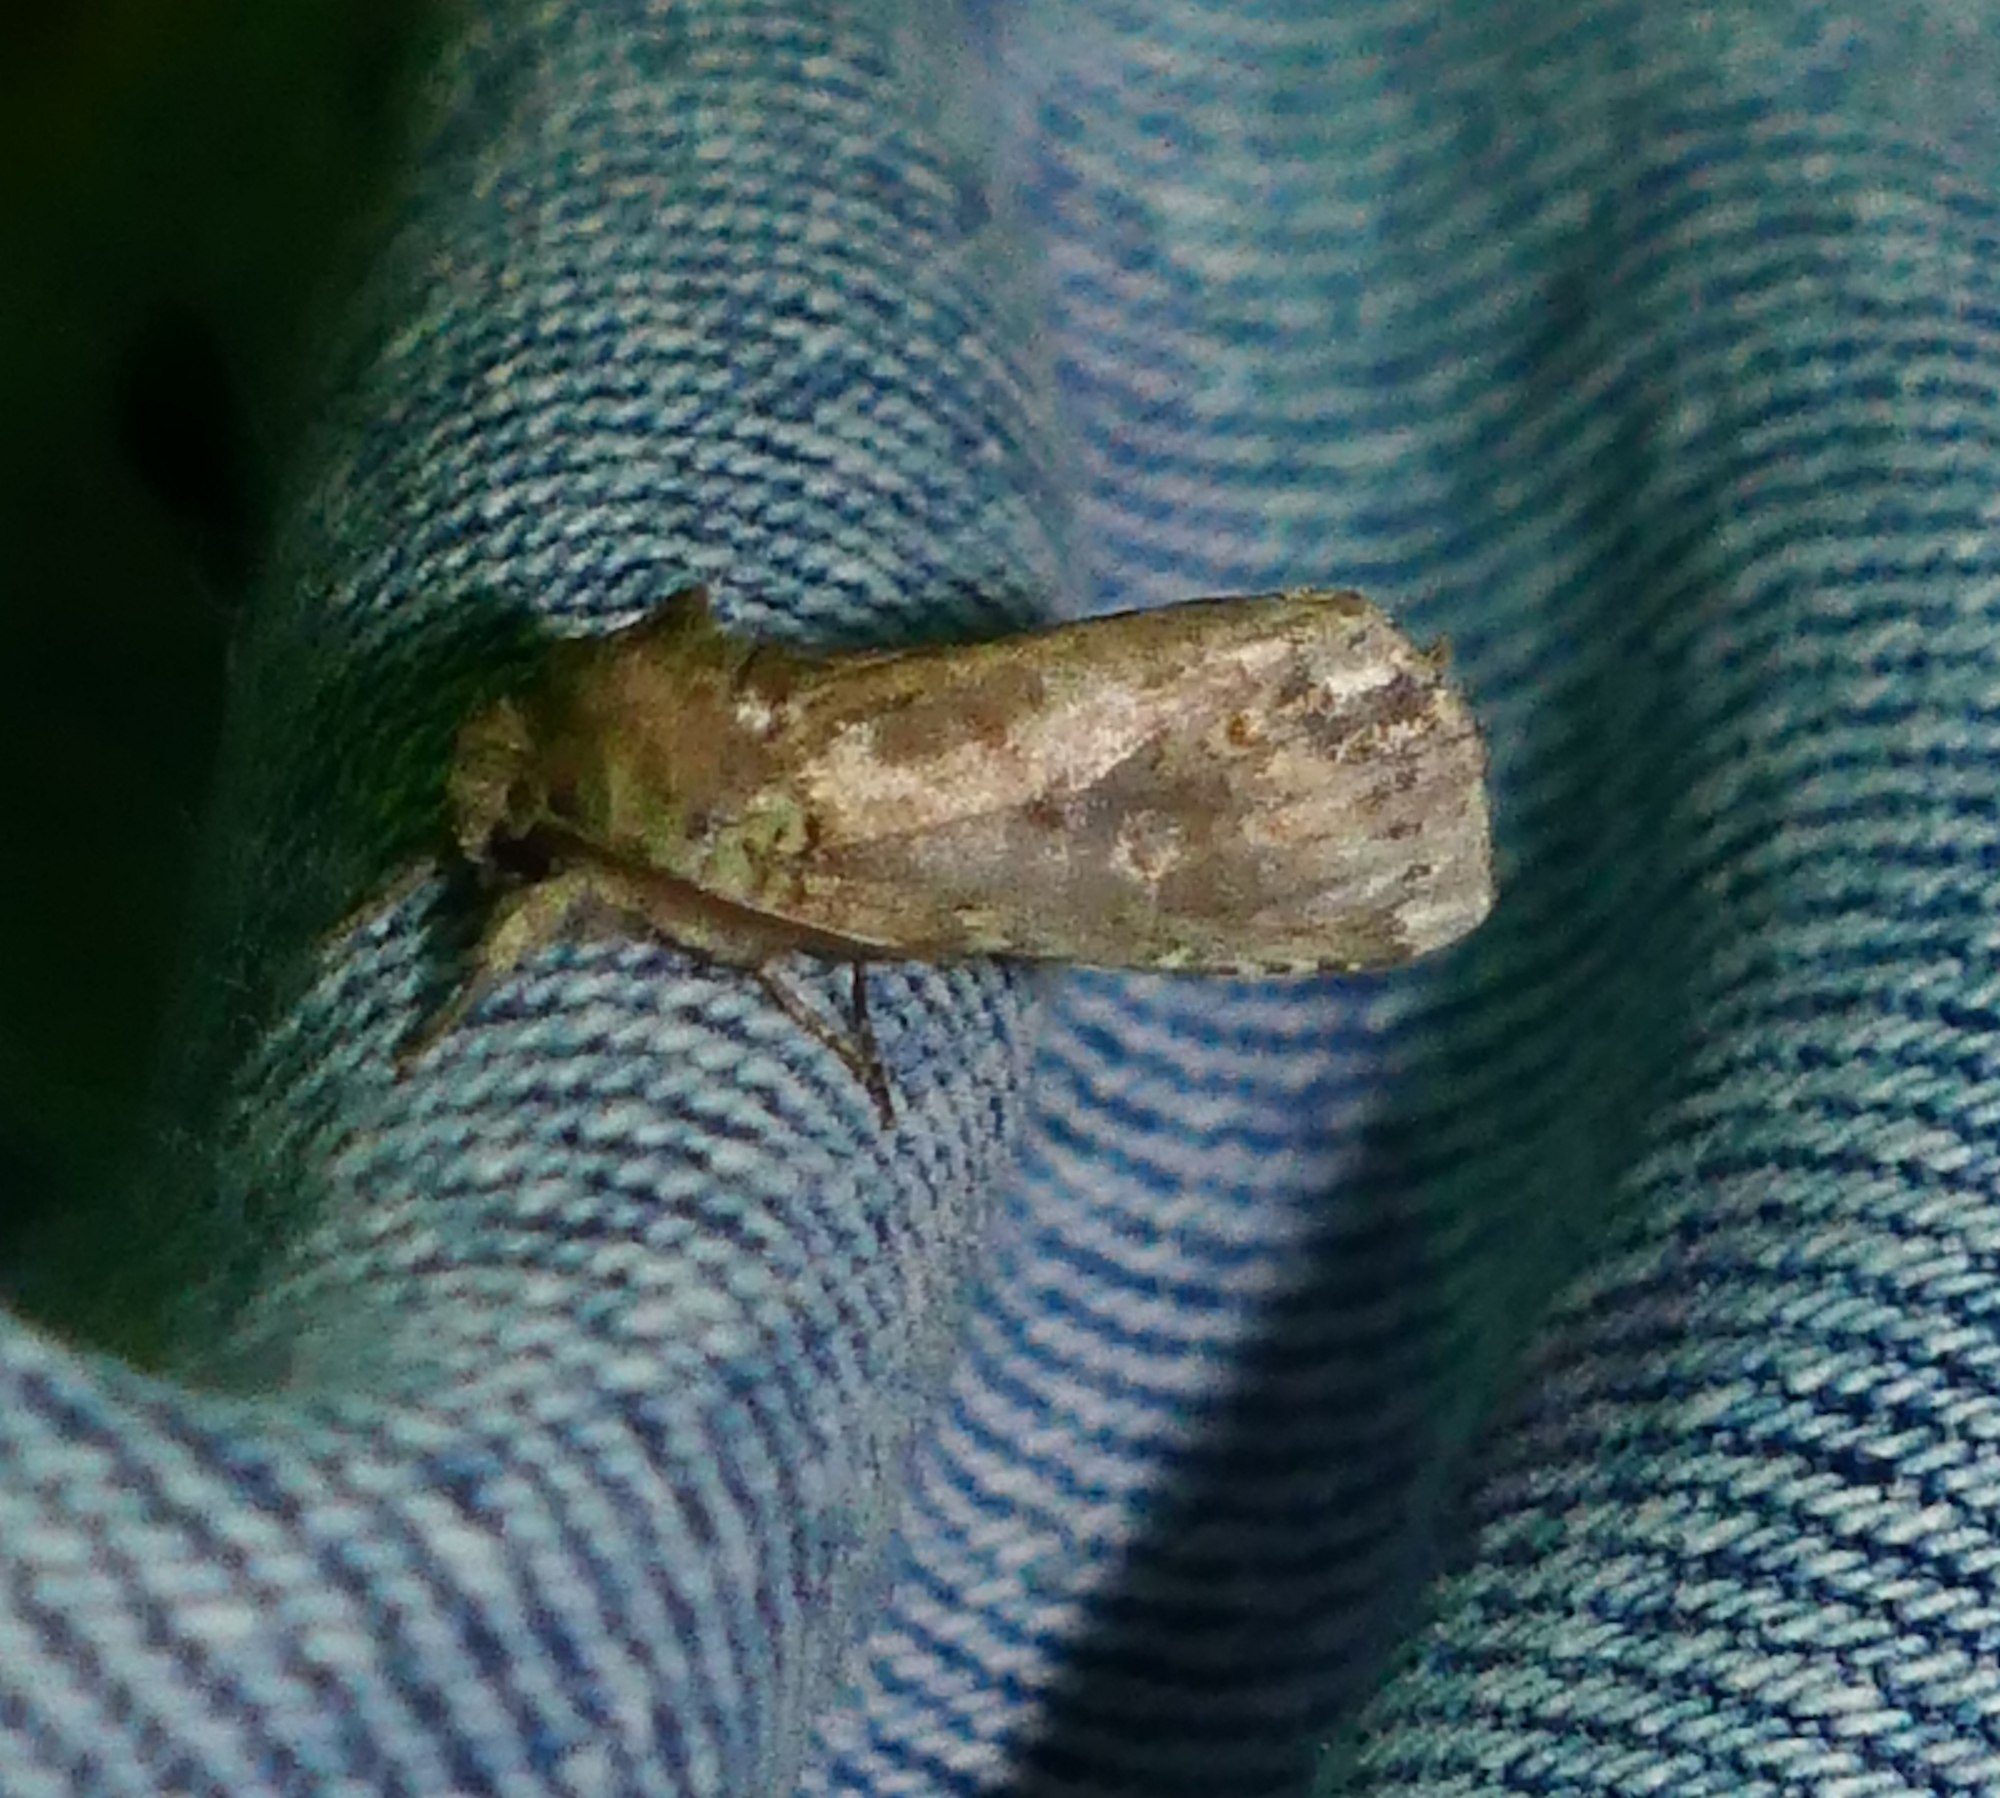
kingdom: Animalia
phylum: Arthropoda
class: Insecta
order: Lepidoptera
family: Notodontidae
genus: Schizura
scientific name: Schizura
